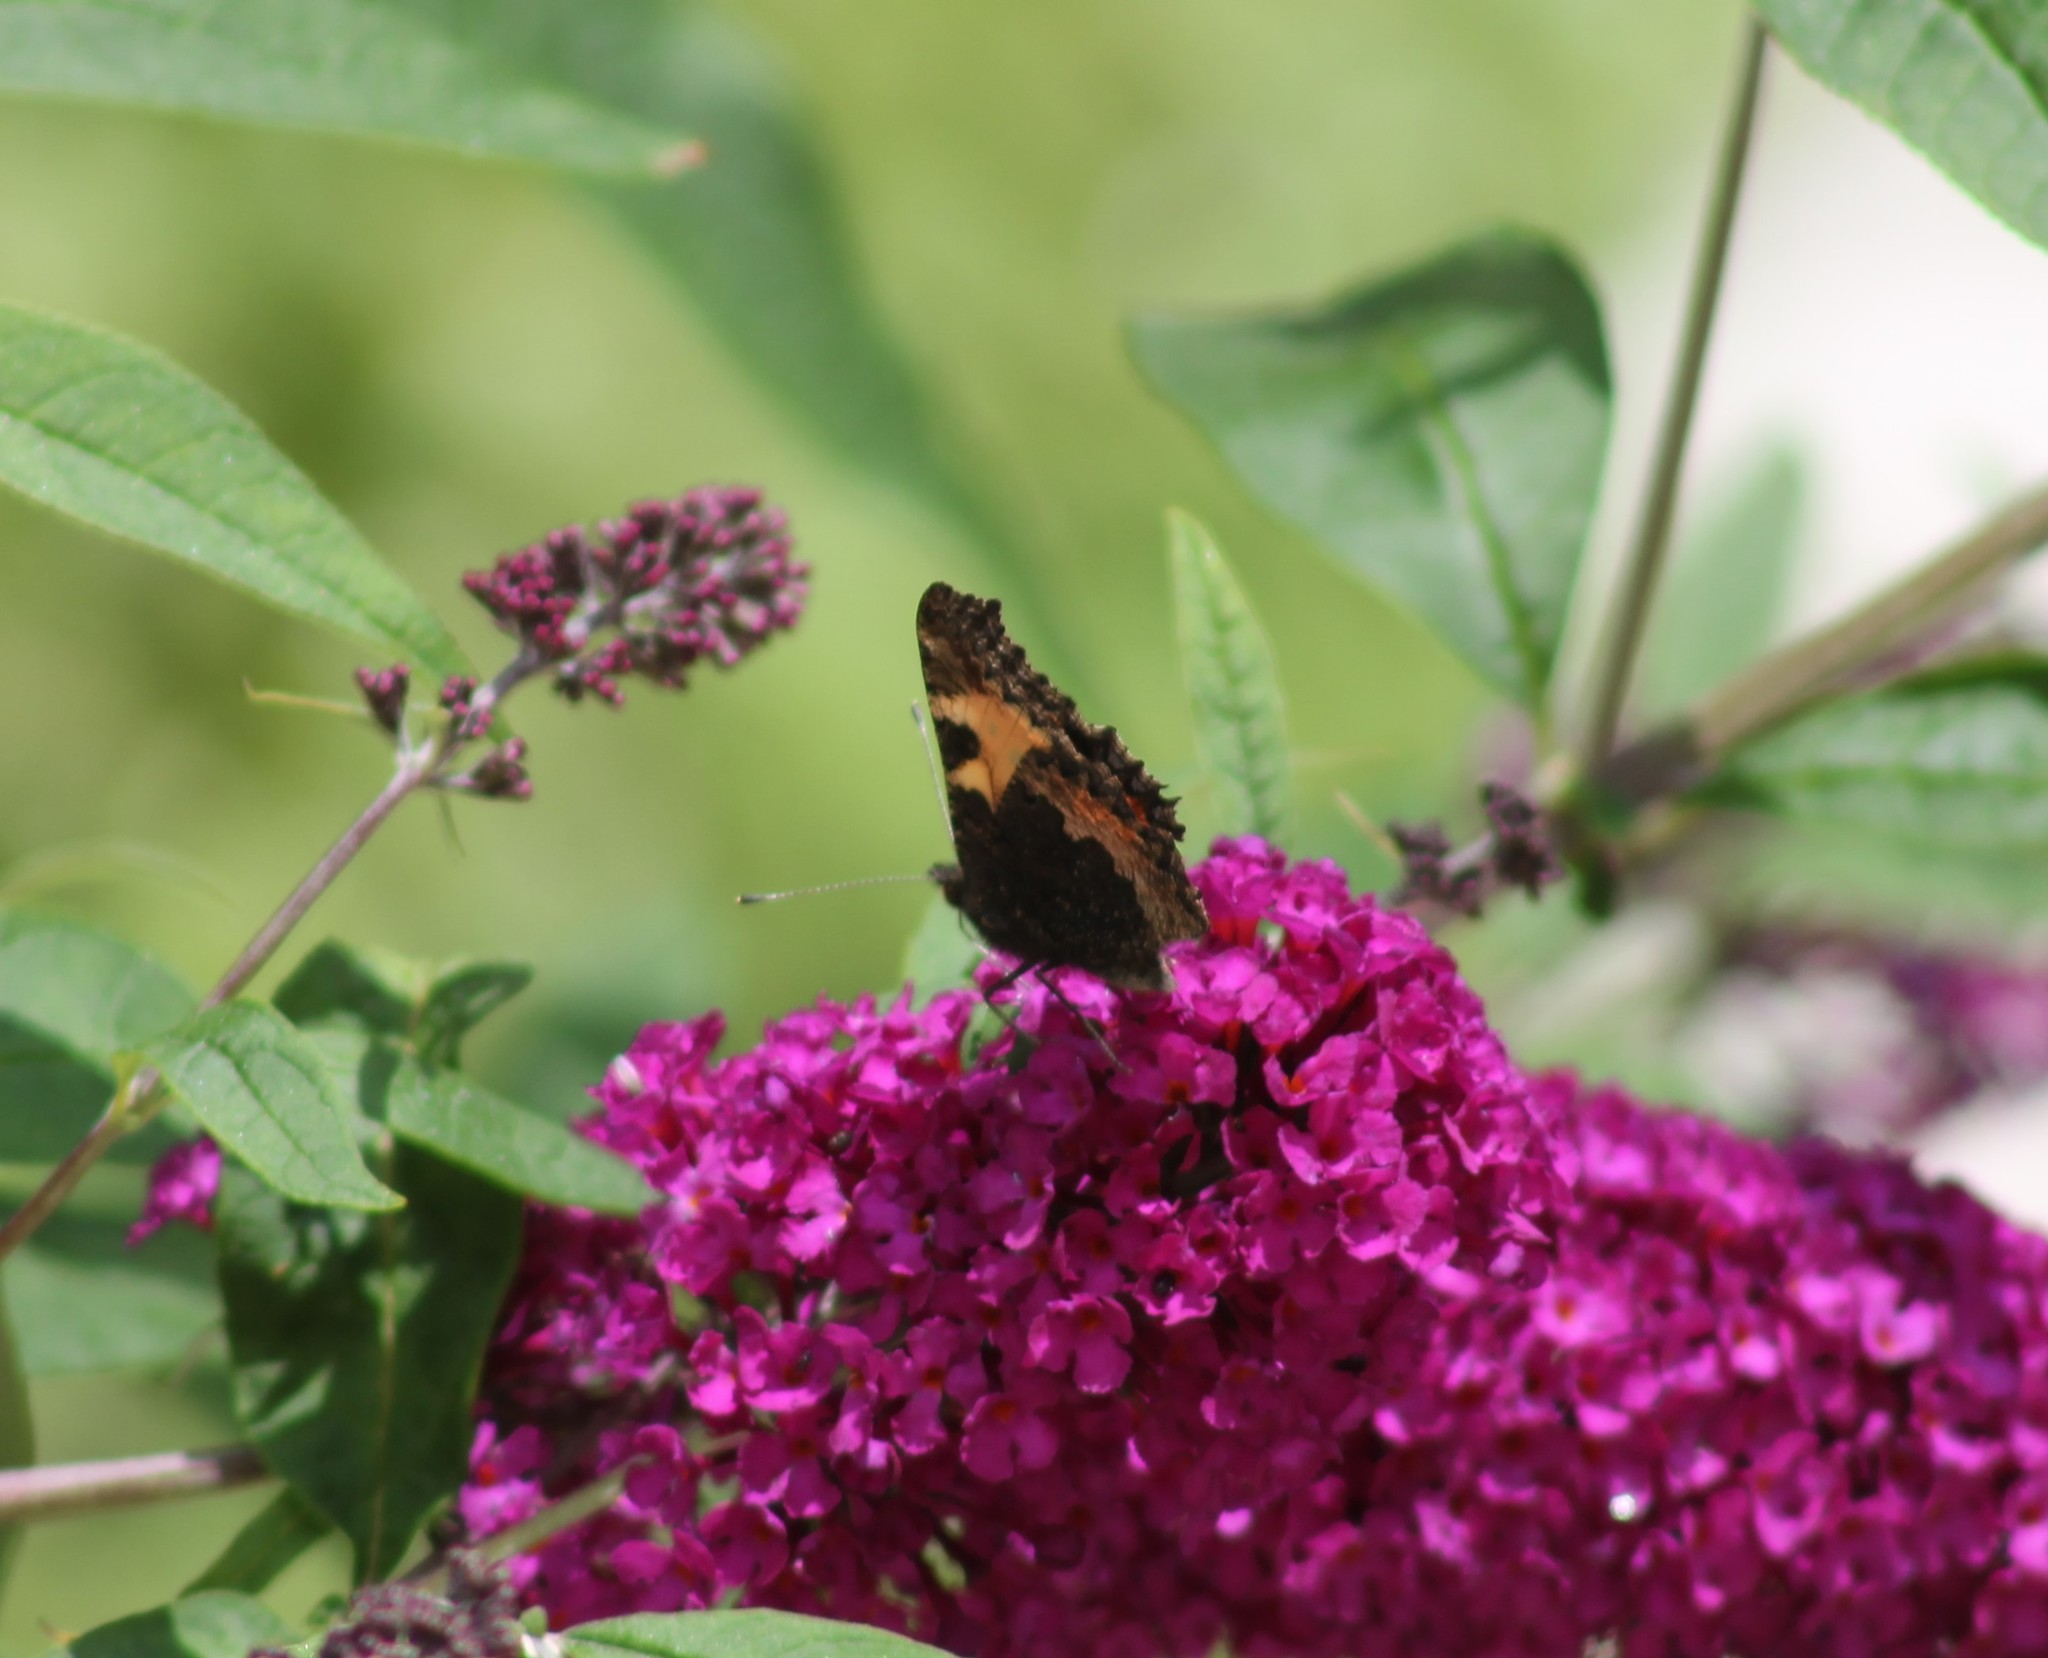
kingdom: Animalia
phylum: Arthropoda
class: Insecta
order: Lepidoptera
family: Nymphalidae
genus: Aglais
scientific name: Aglais urticae
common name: Small tortoiseshell
